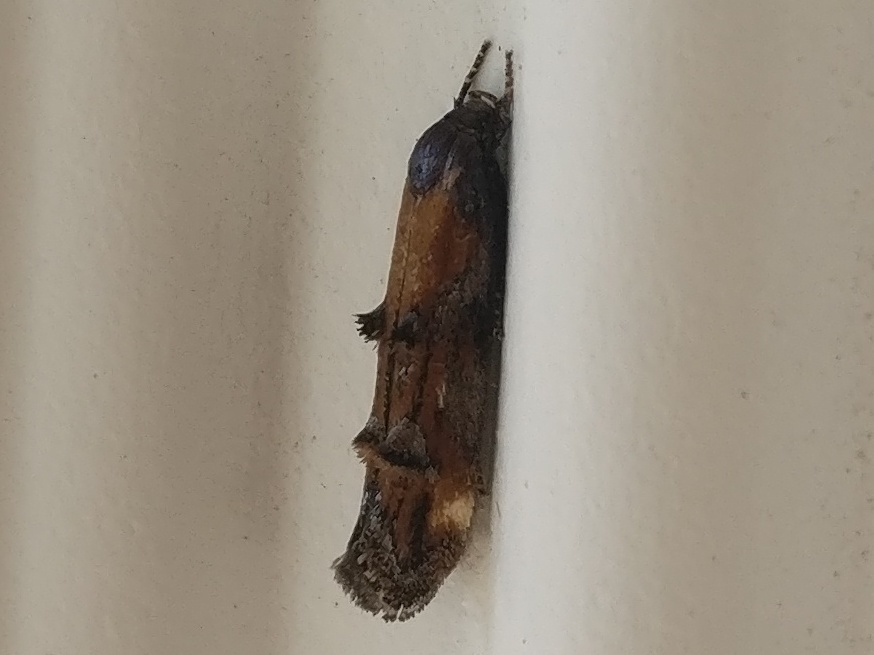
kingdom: Animalia
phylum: Arthropoda
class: Insecta
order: Lepidoptera
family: Momphidae
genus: Mompha
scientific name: Mompha idaei
